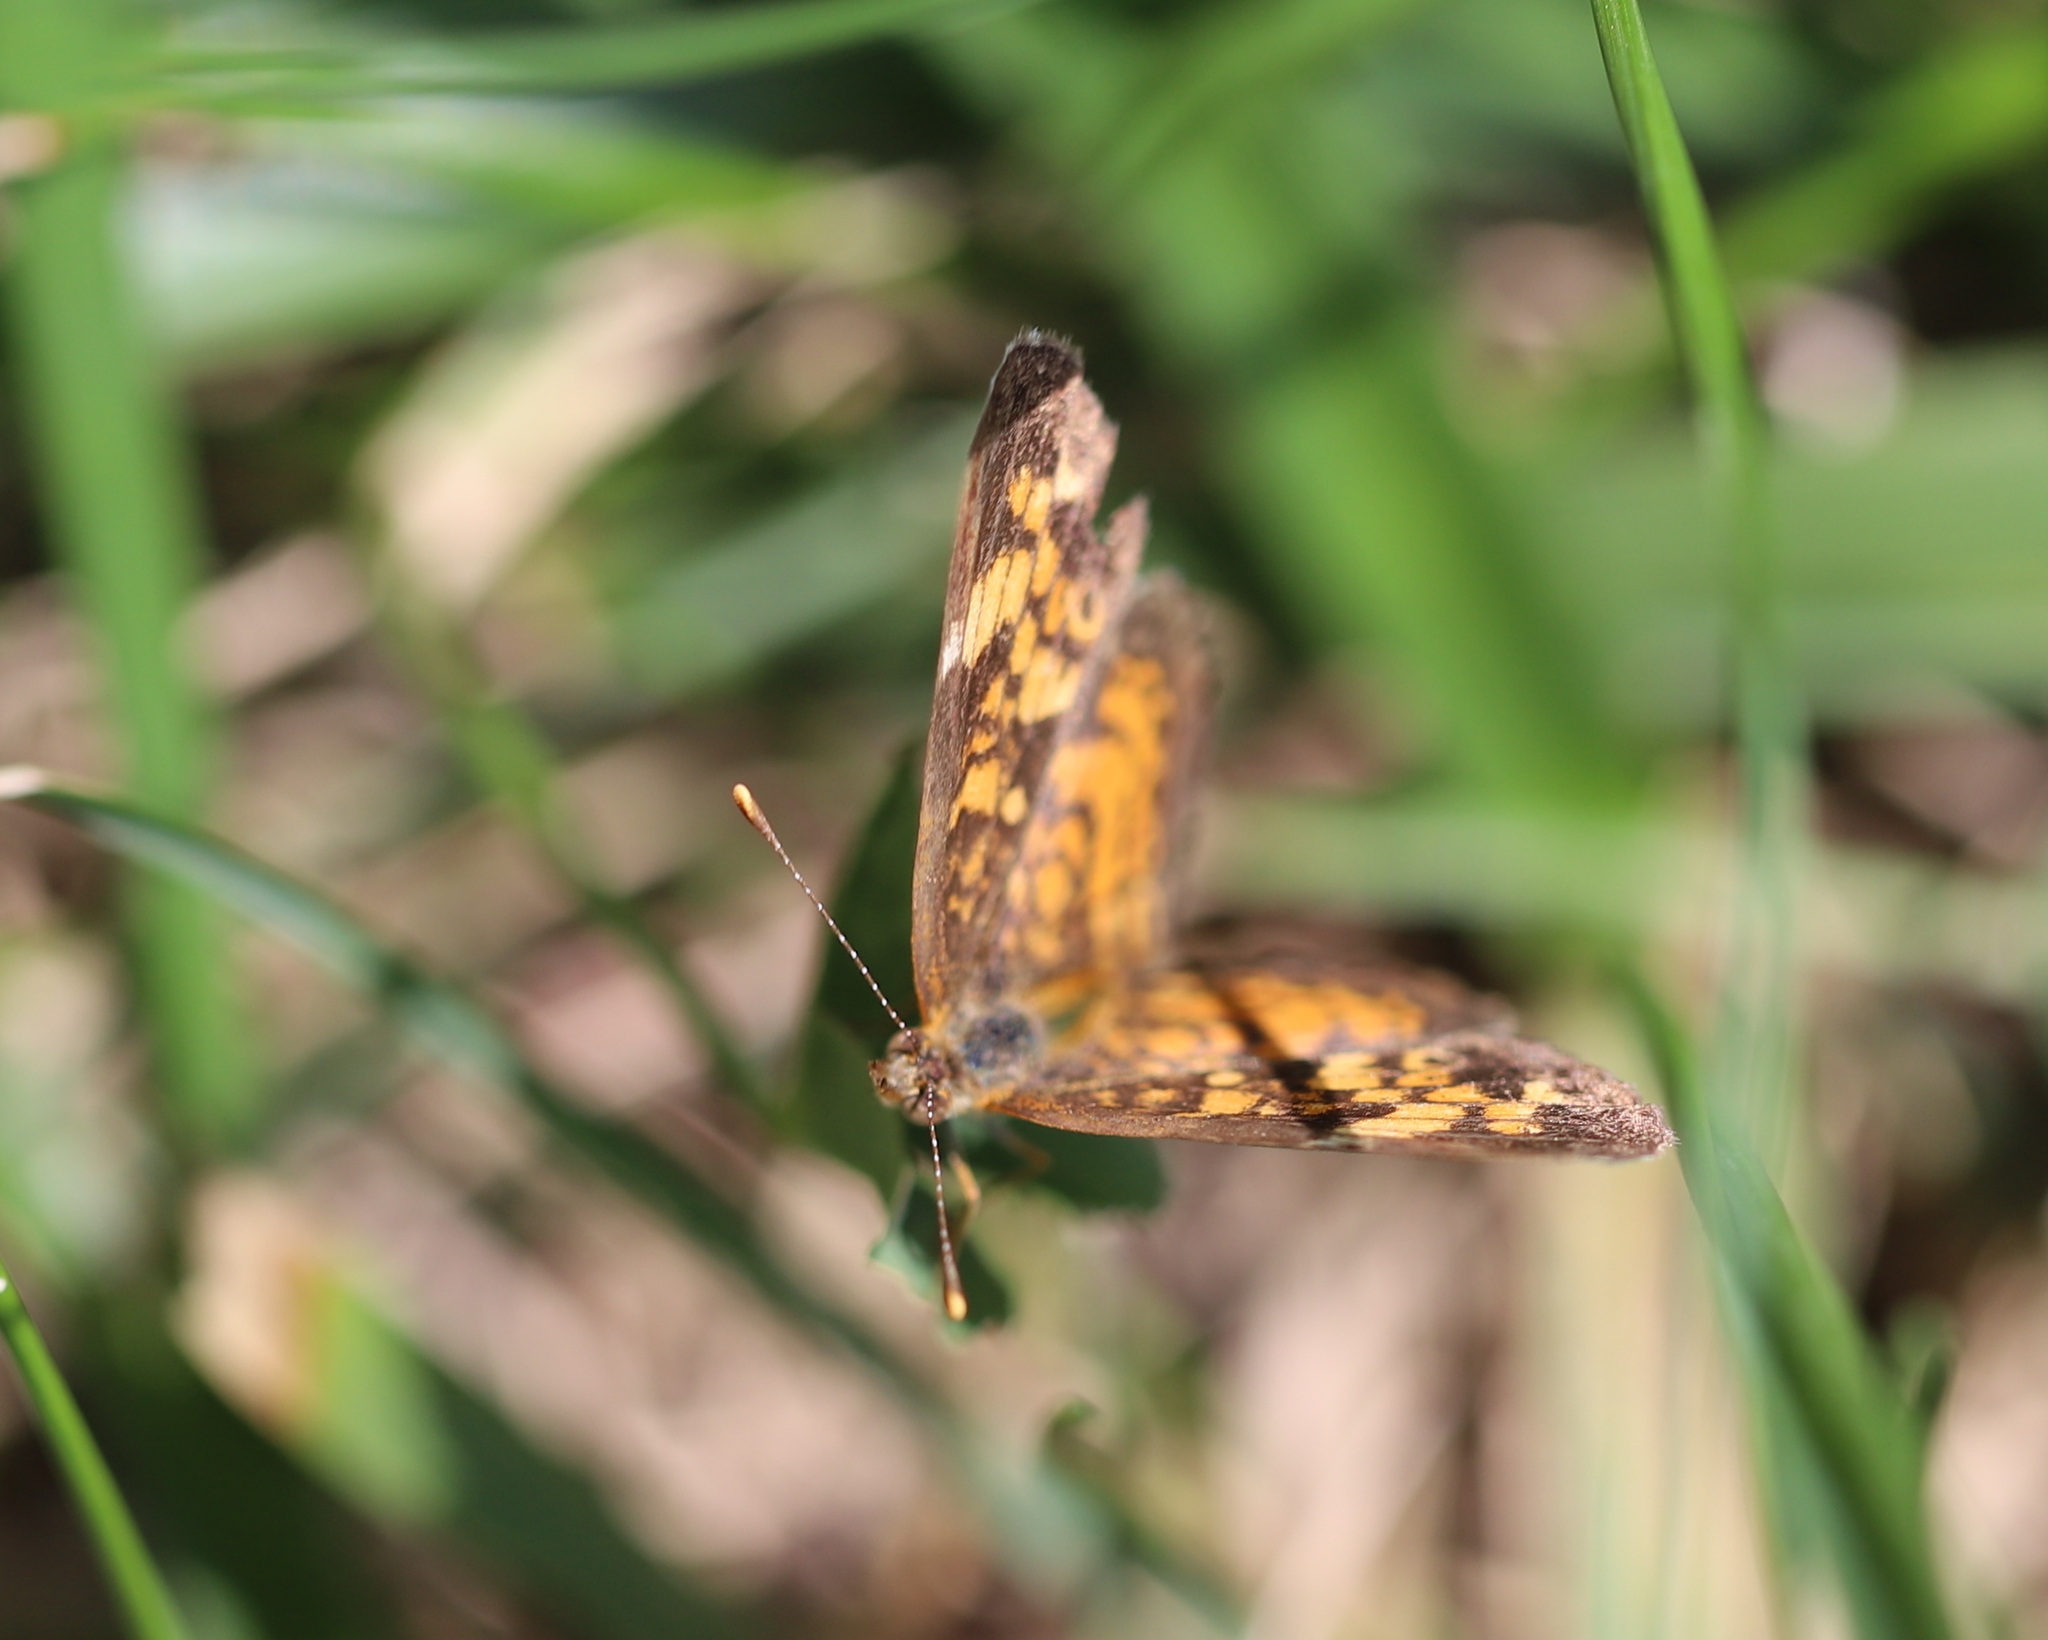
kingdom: Animalia
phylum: Arthropoda
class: Insecta
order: Lepidoptera
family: Nymphalidae
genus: Phyciodes
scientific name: Phyciodes tharos
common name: Pearl crescent
